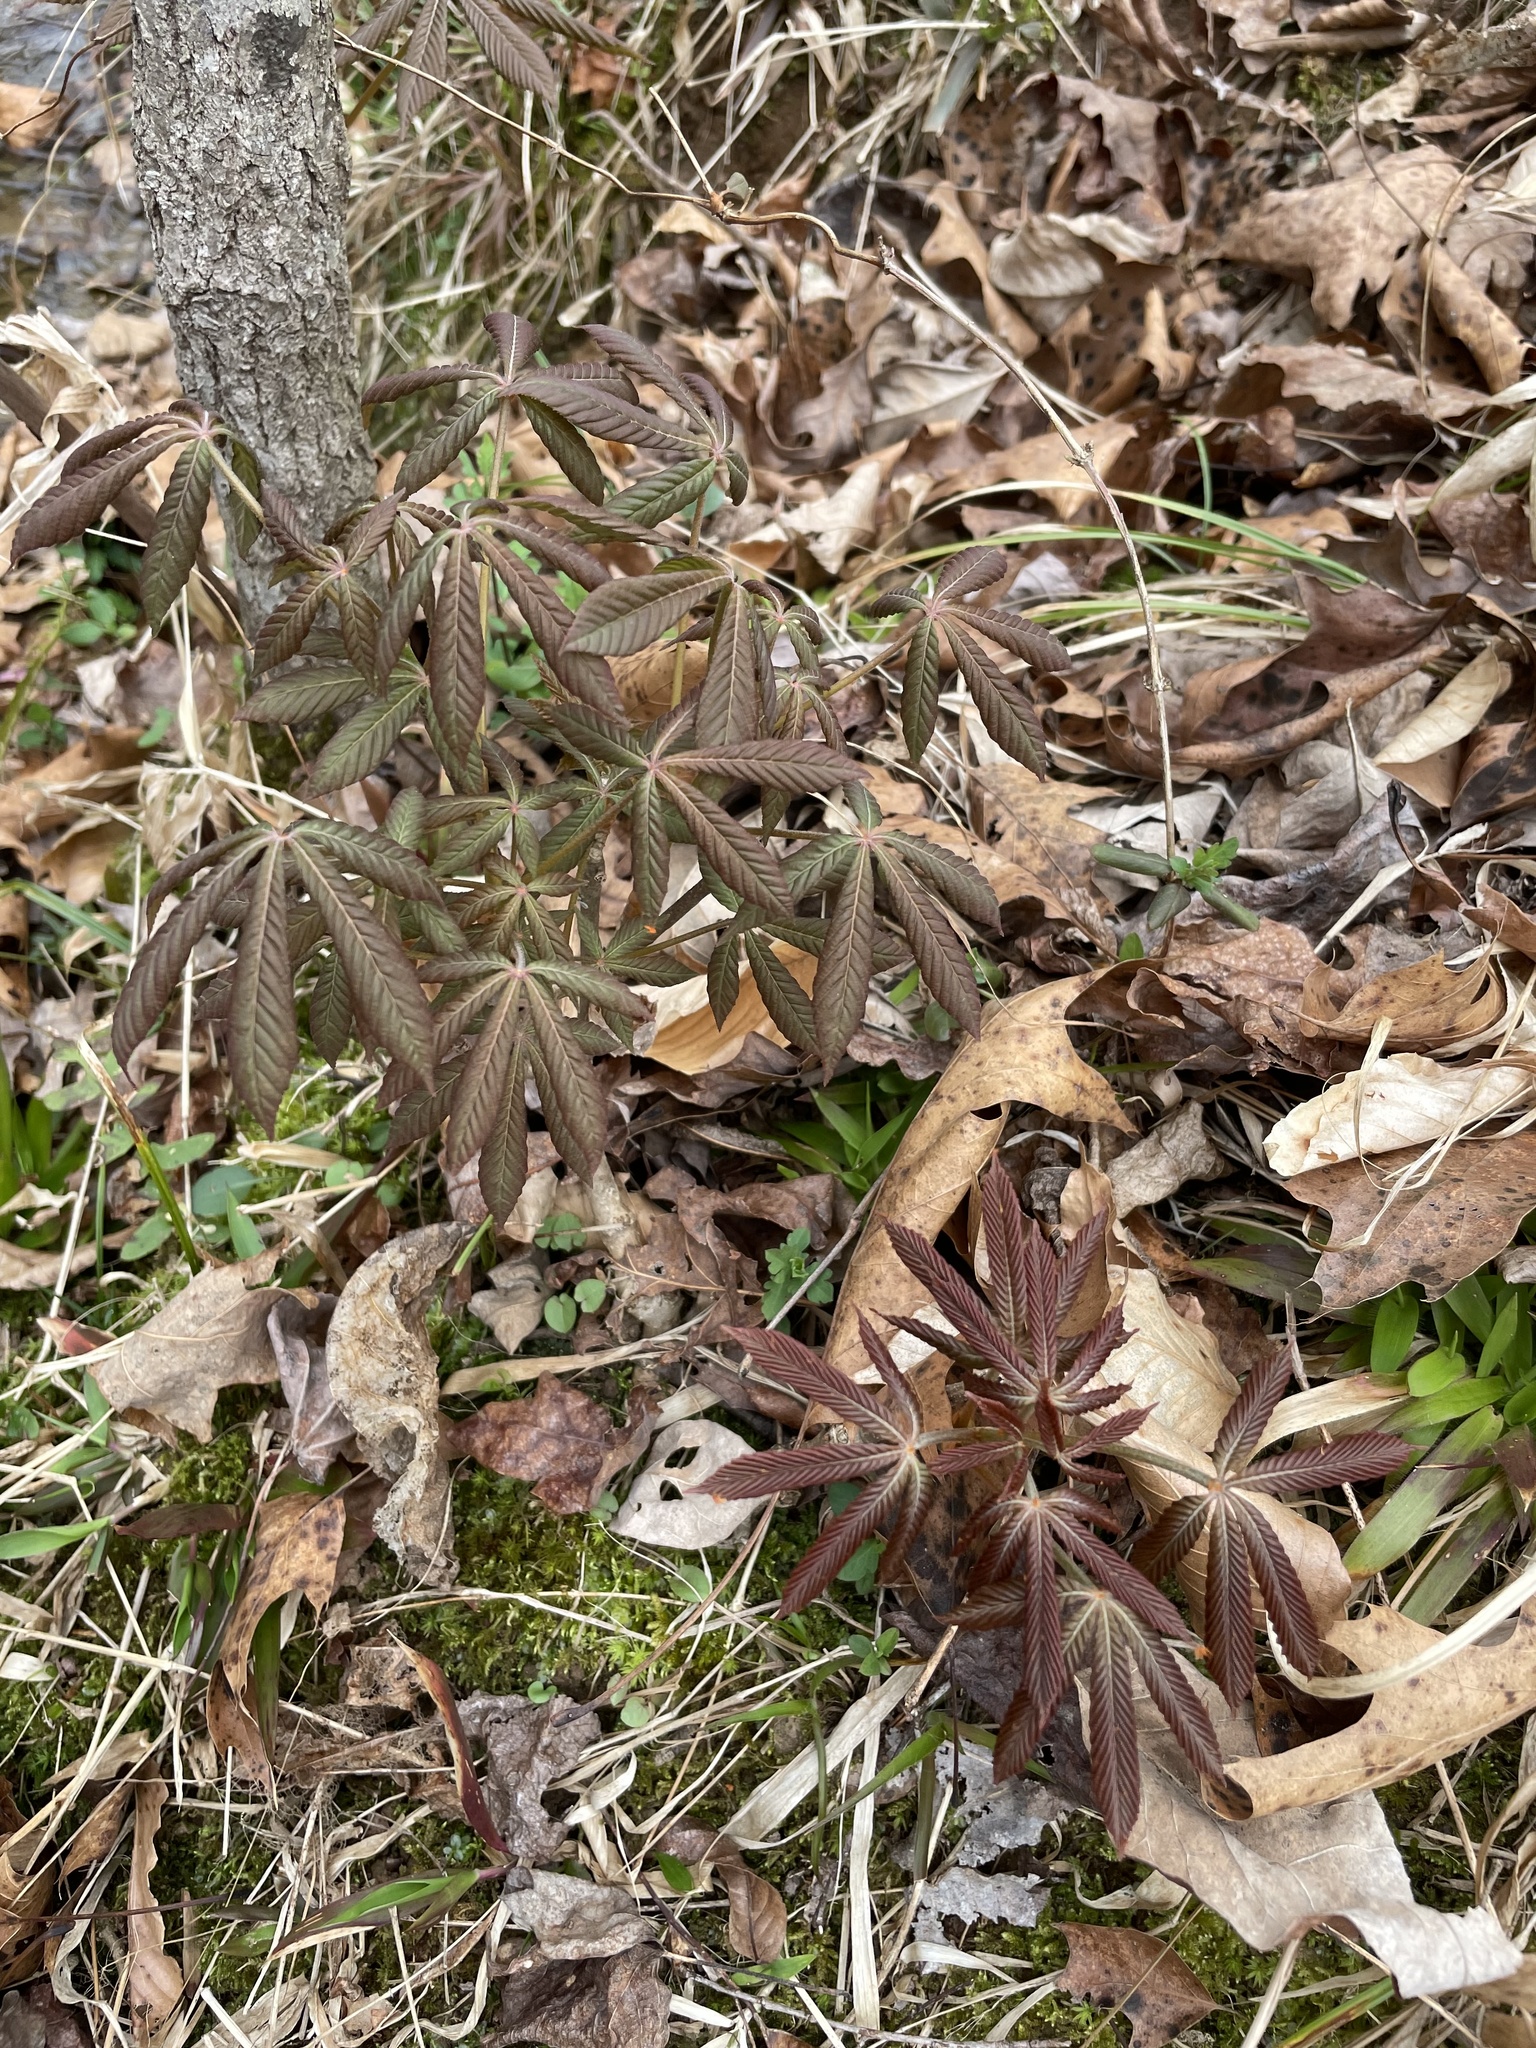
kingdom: Plantae
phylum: Tracheophyta
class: Magnoliopsida
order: Sapindales
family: Sapindaceae
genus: Aesculus
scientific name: Aesculus sylvatica
